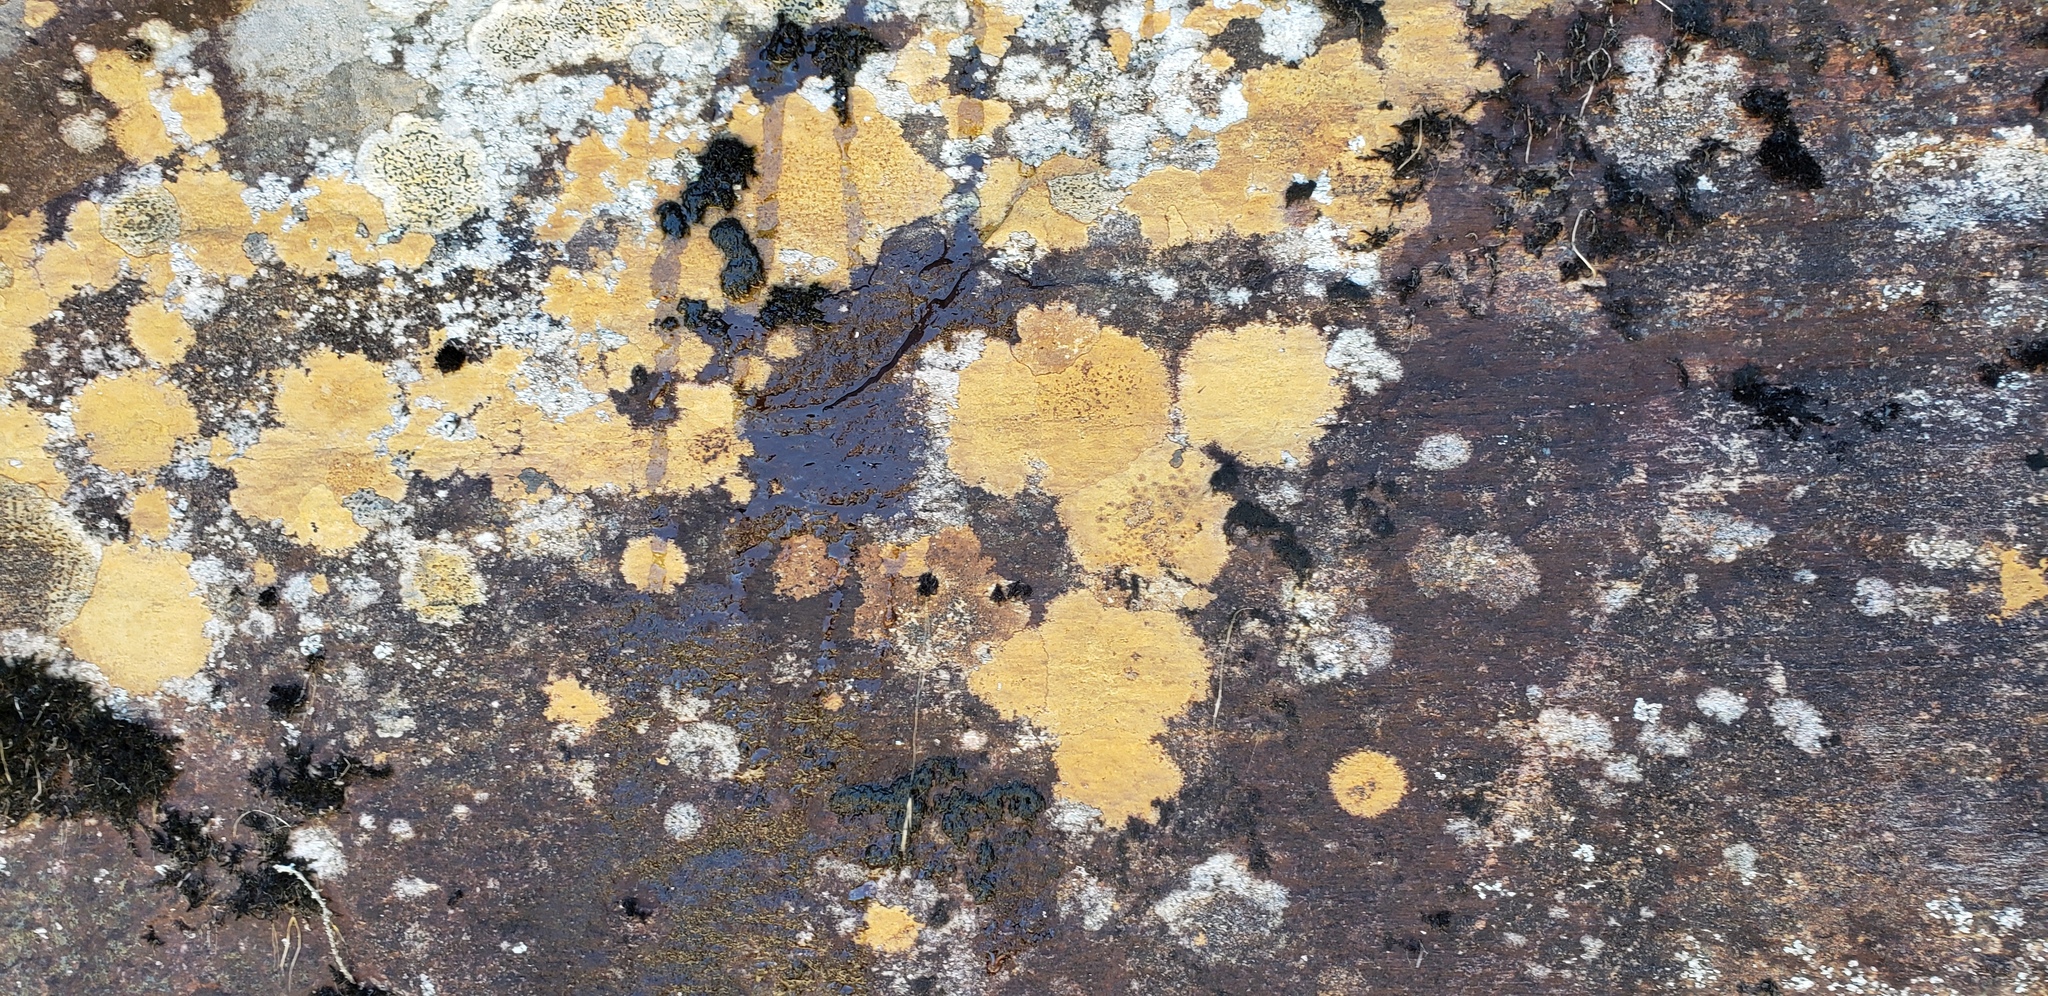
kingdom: Fungi
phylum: Ascomycota
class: Lecanoromycetes
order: Hymeneliales
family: Hymeneliaceae
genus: Ionaspis
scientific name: Ionaspis lacustris
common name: Rusty brook lichen
